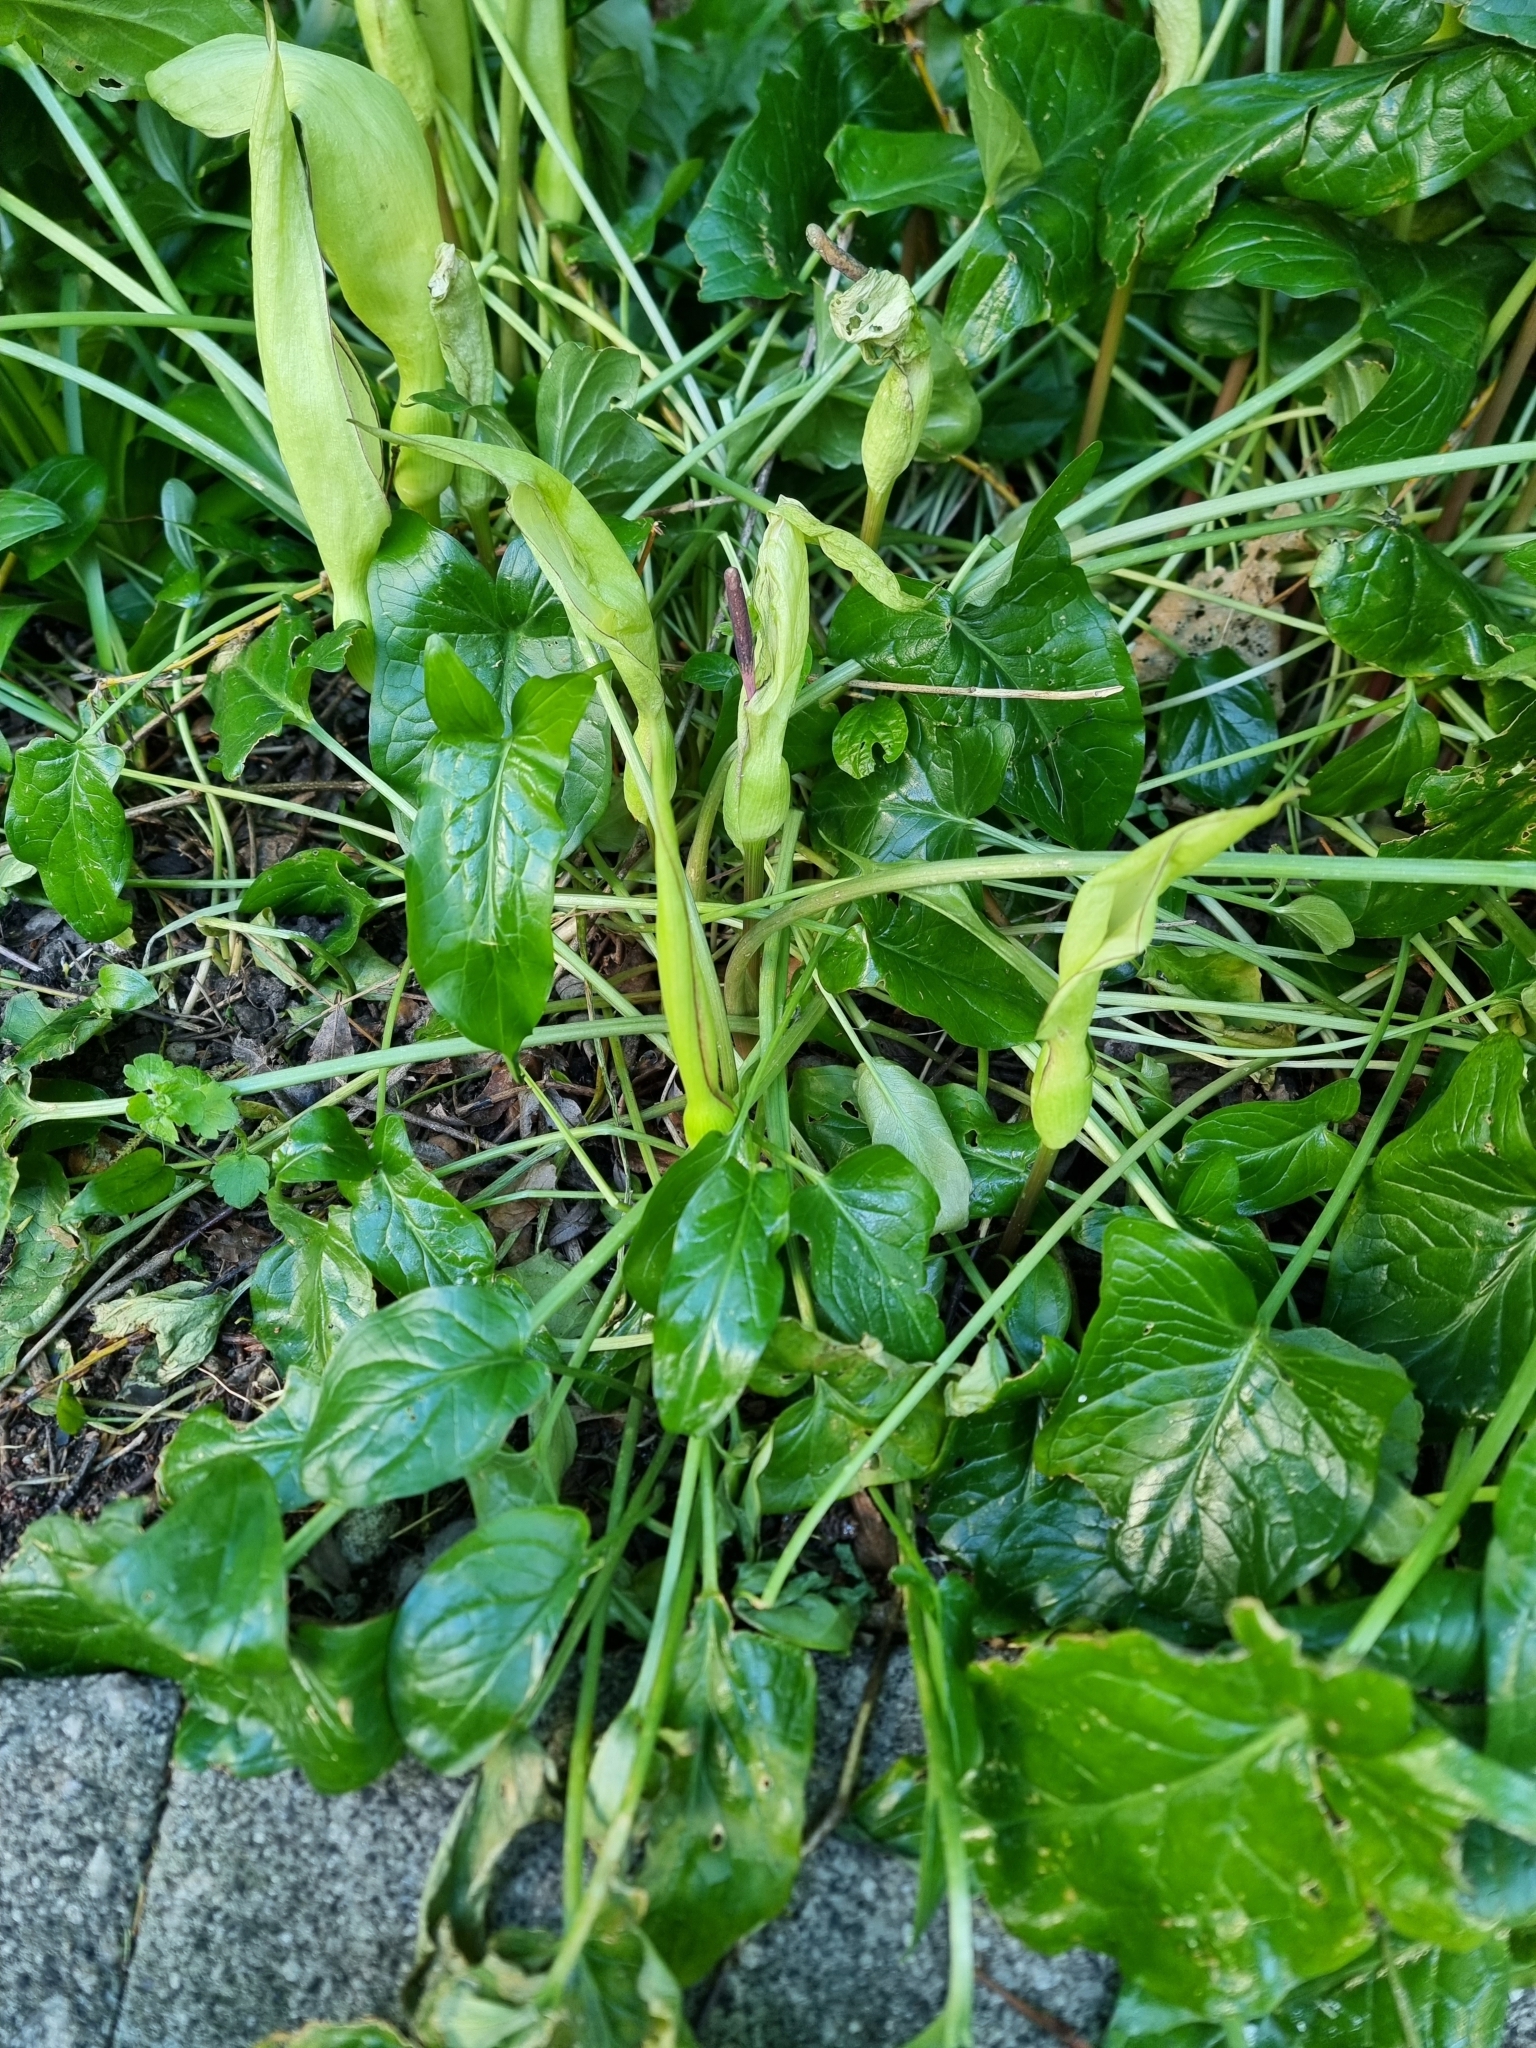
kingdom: Plantae
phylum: Tracheophyta
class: Liliopsida
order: Alismatales
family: Araceae
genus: Arum
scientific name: Arum maculatum
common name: Lords-and-ladies
